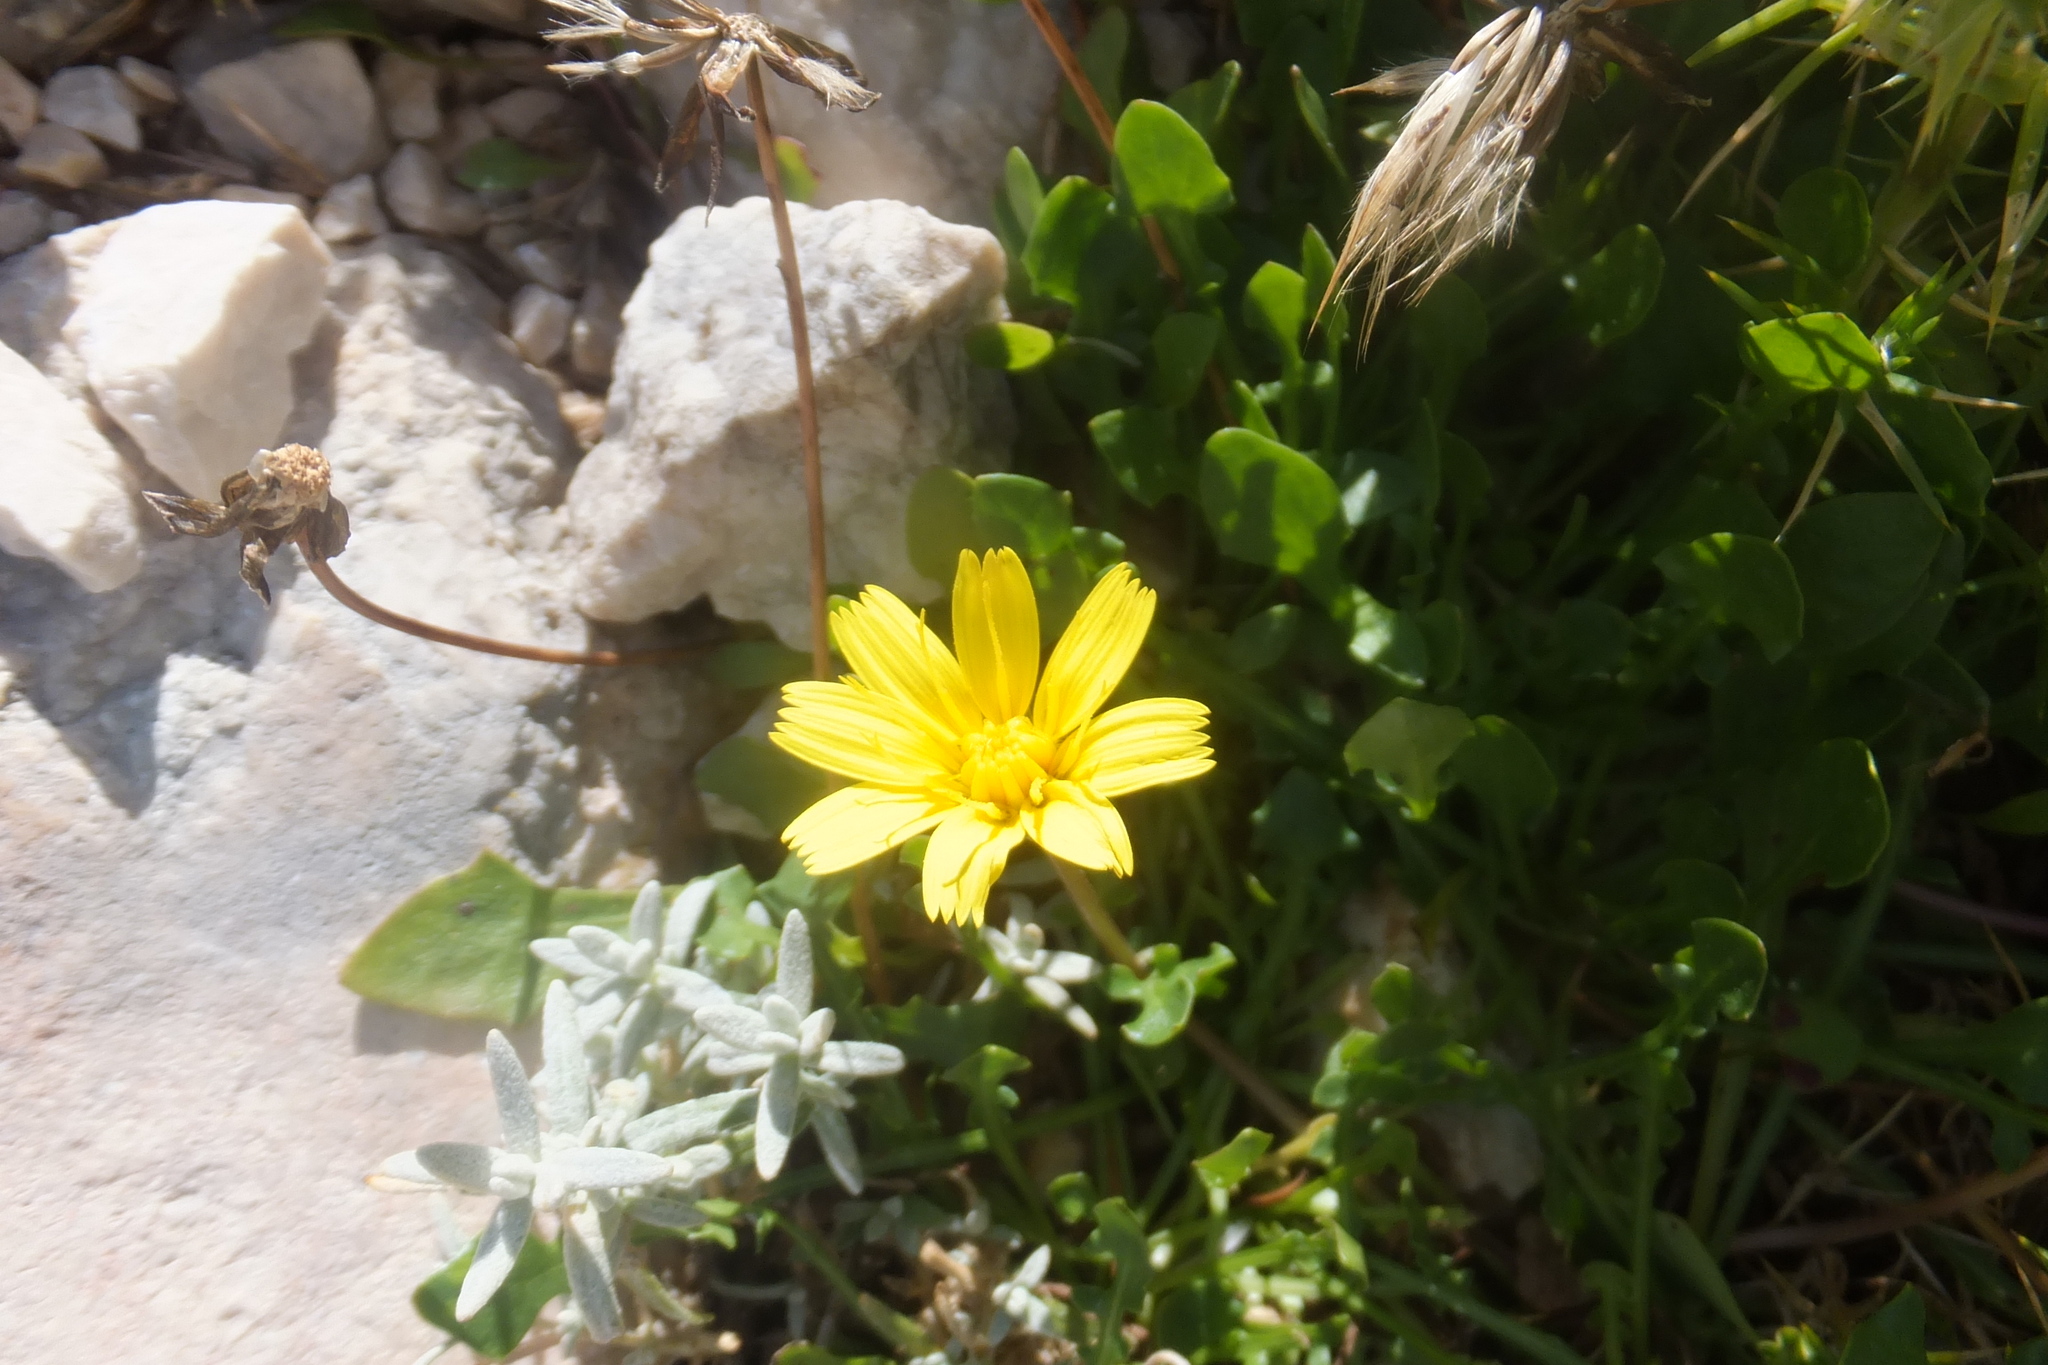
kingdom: Plantae
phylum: Tracheophyta
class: Magnoliopsida
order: Asterales
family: Asteraceae
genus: Hypochaeris
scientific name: Hypochaeris robertia
